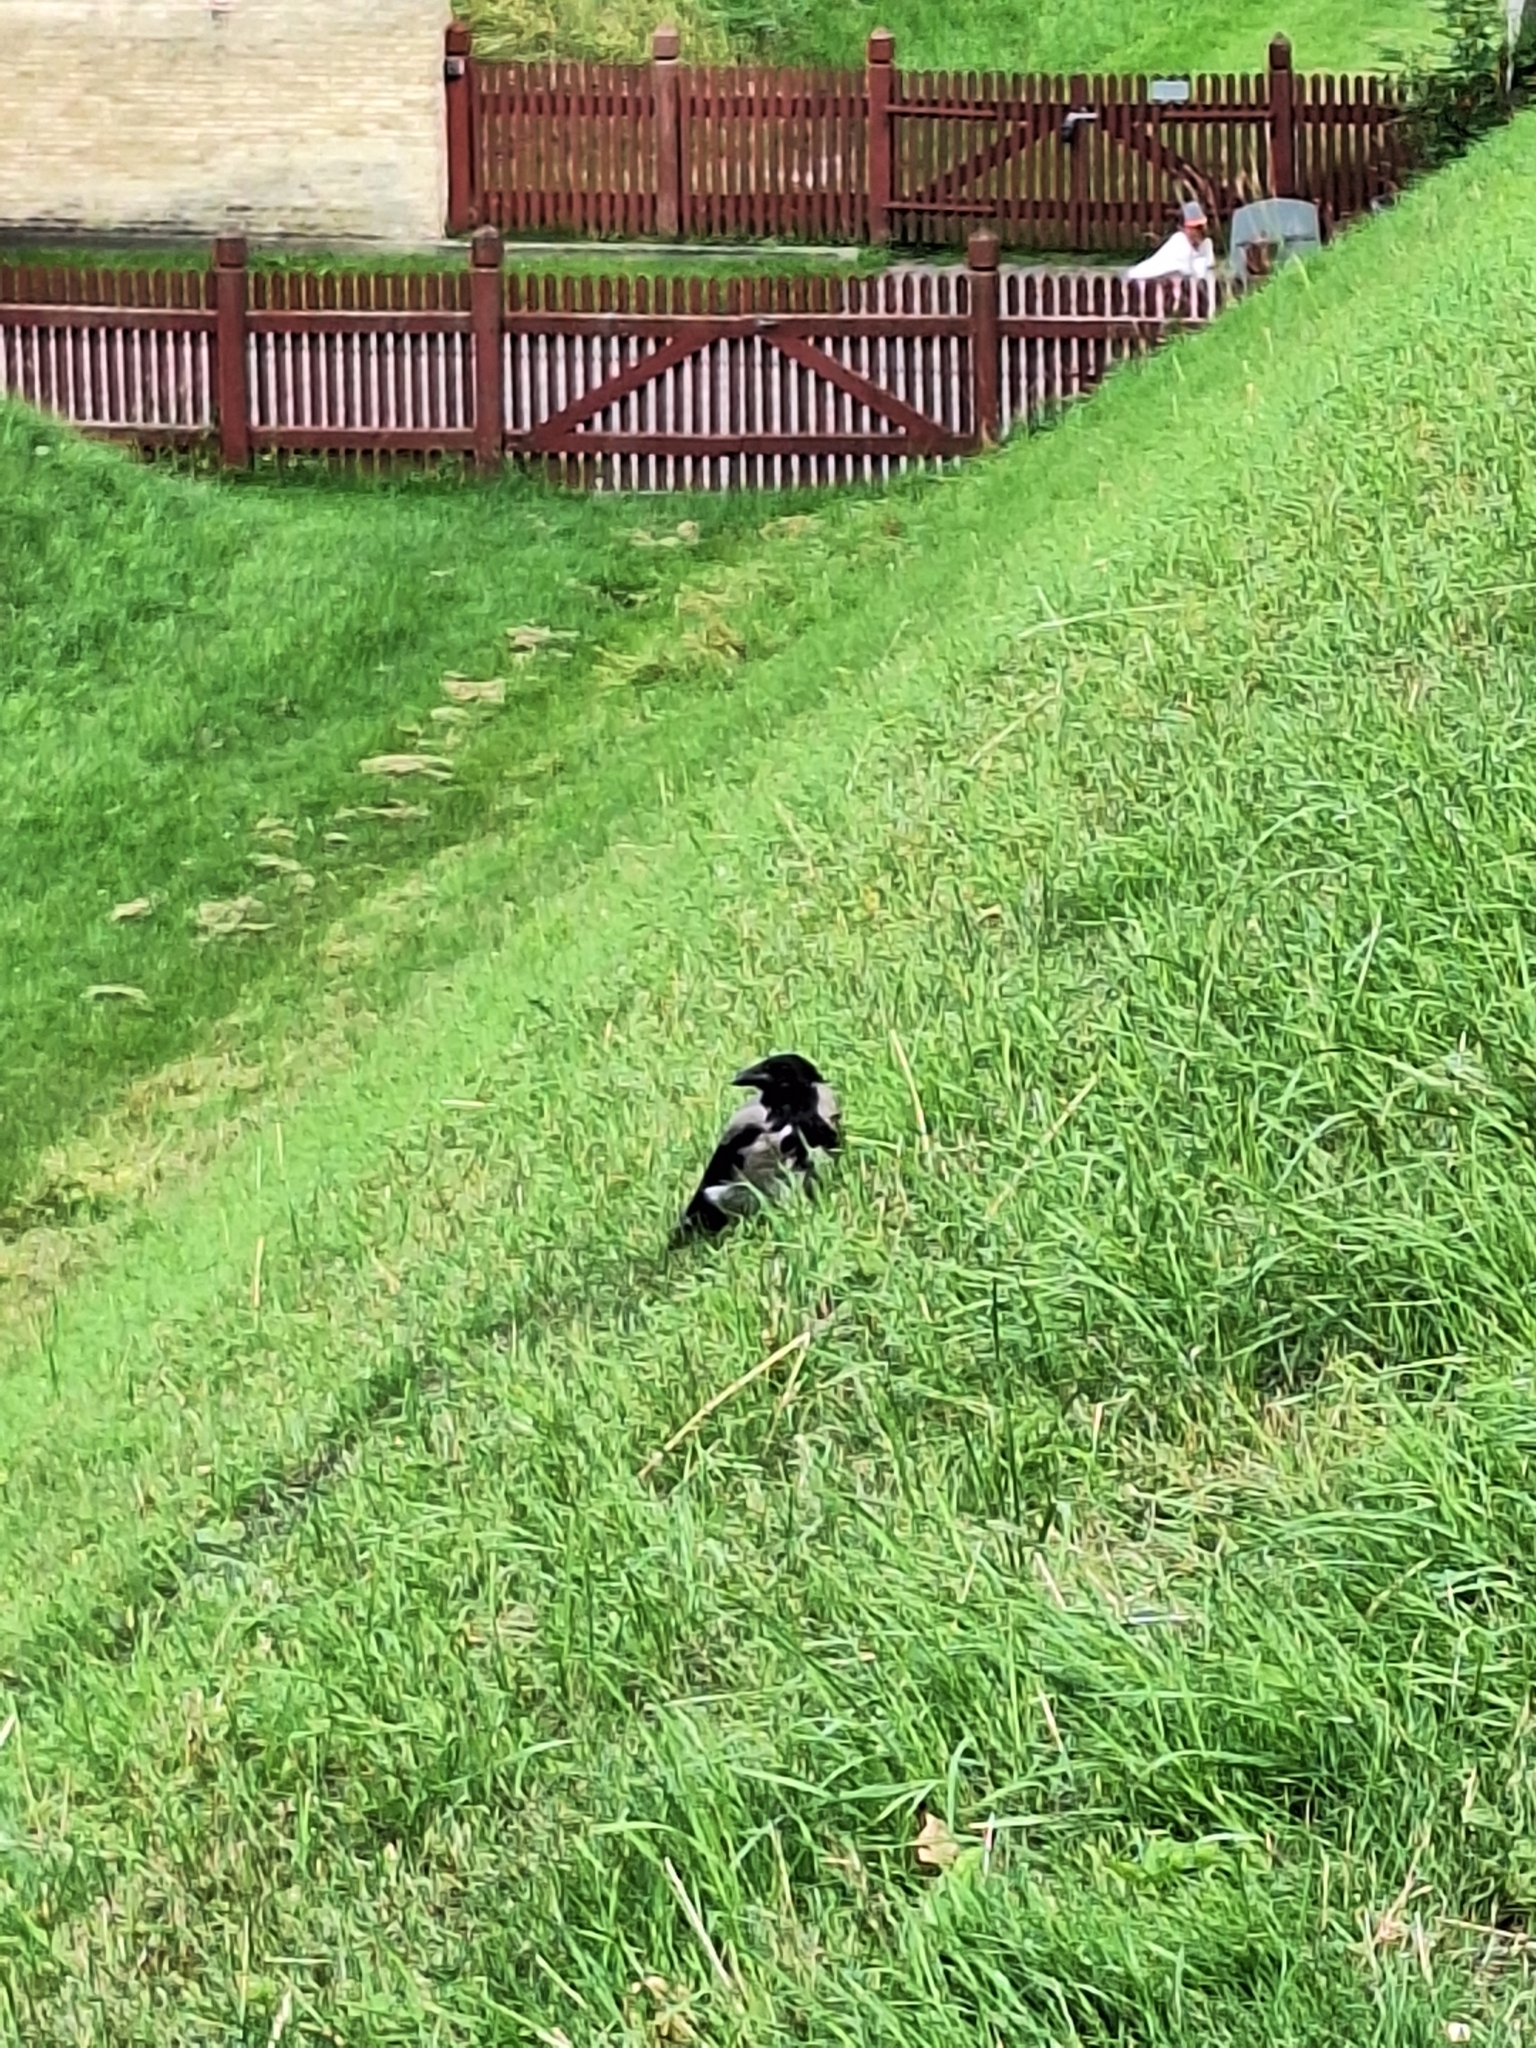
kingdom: Animalia
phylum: Chordata
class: Aves
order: Passeriformes
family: Corvidae
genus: Corvus
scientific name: Corvus cornix
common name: Hooded crow
